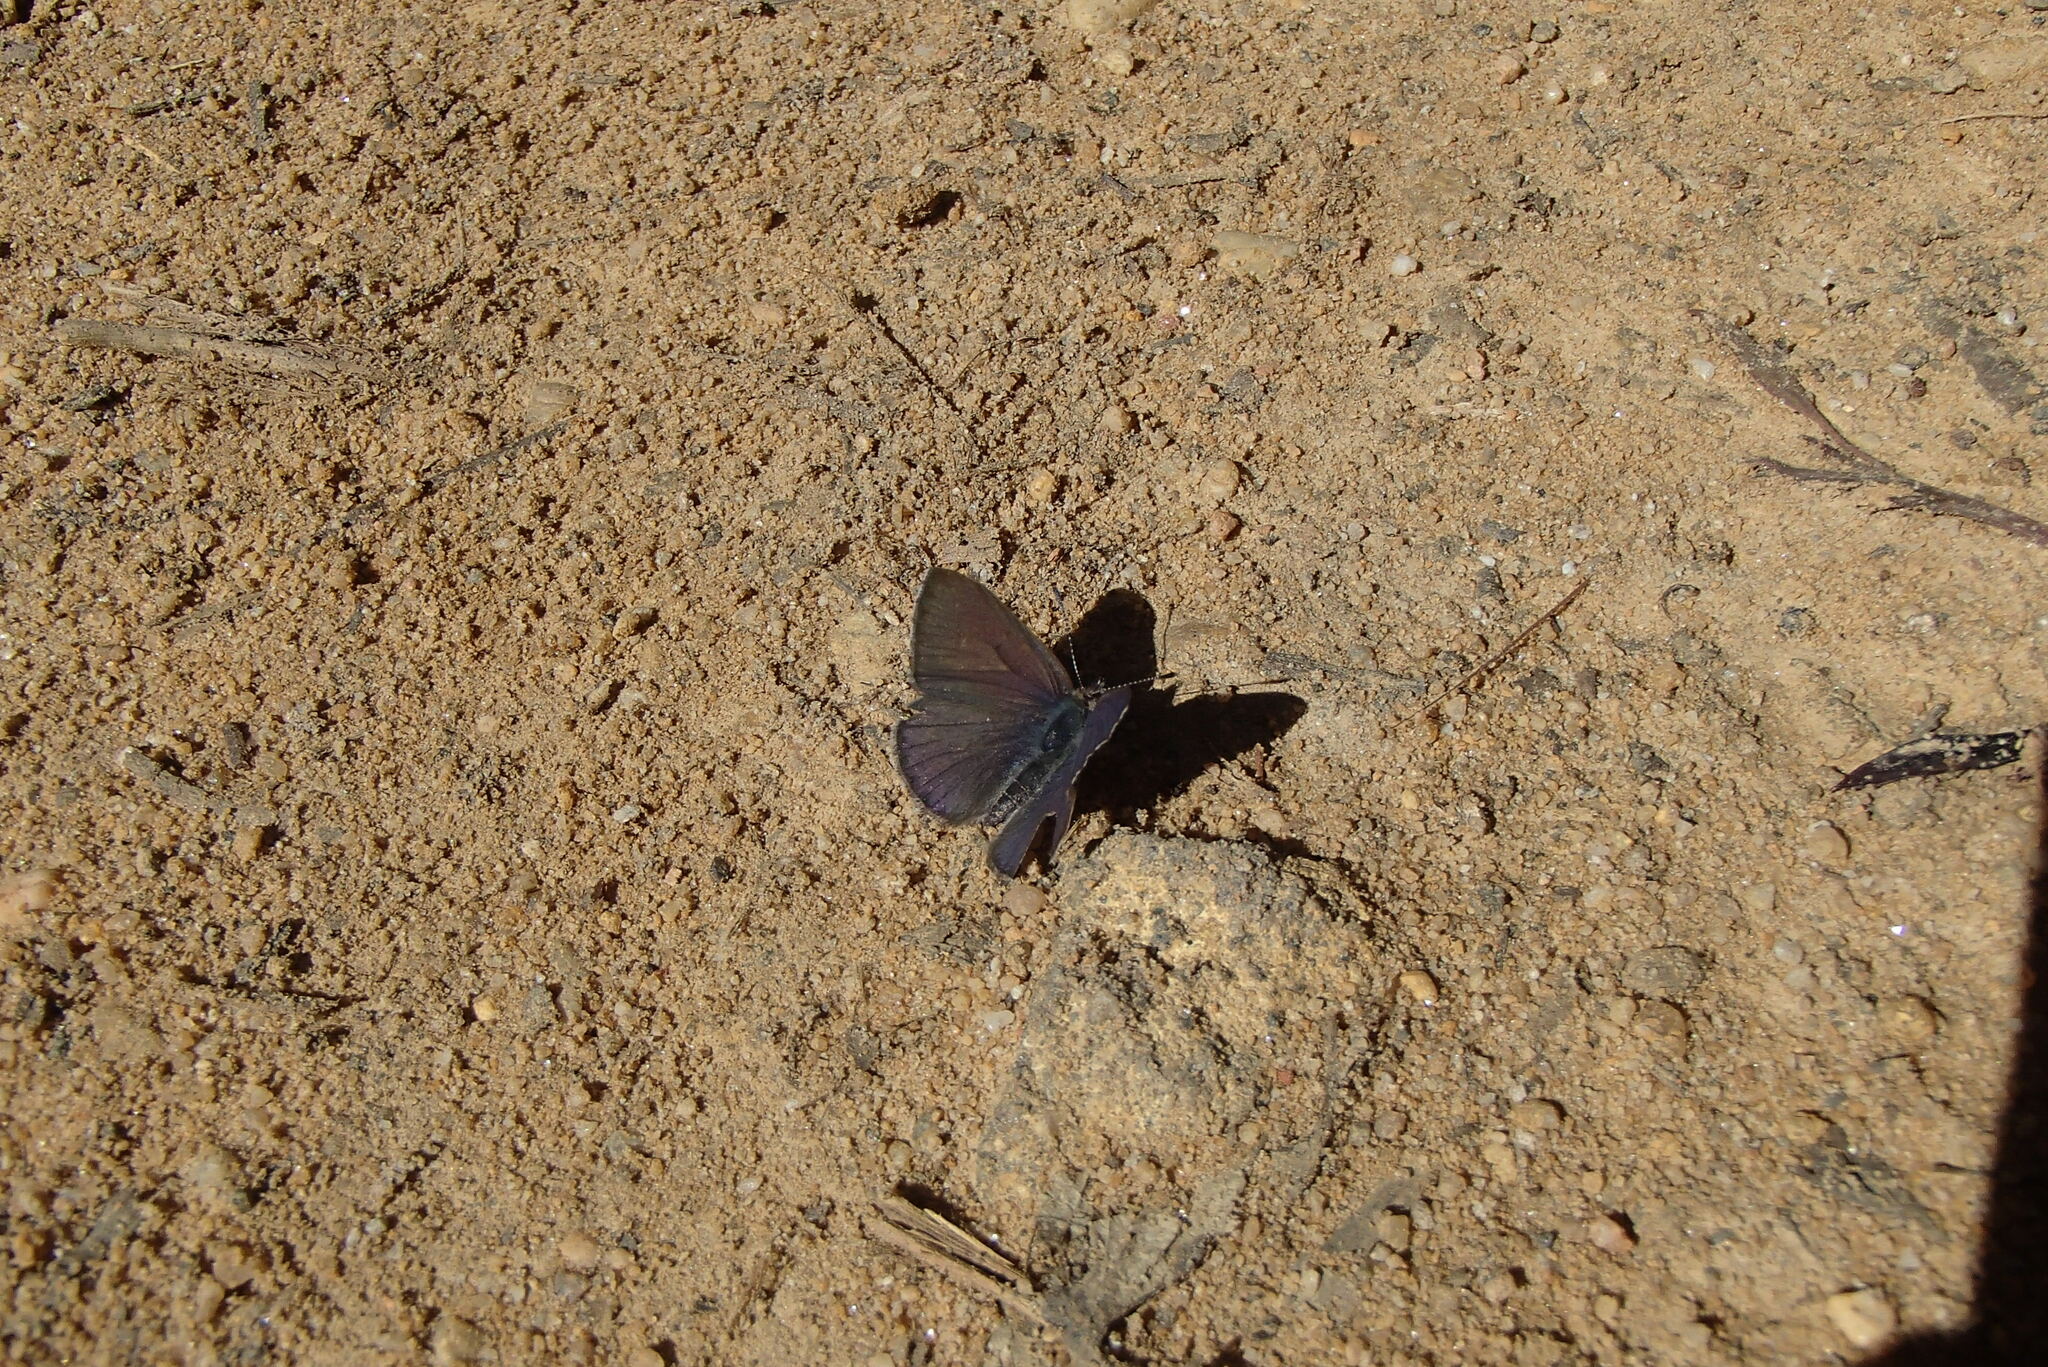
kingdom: Animalia
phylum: Arthropoda
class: Insecta
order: Lepidoptera
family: Lycaenidae
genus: Candalides
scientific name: Candalides
